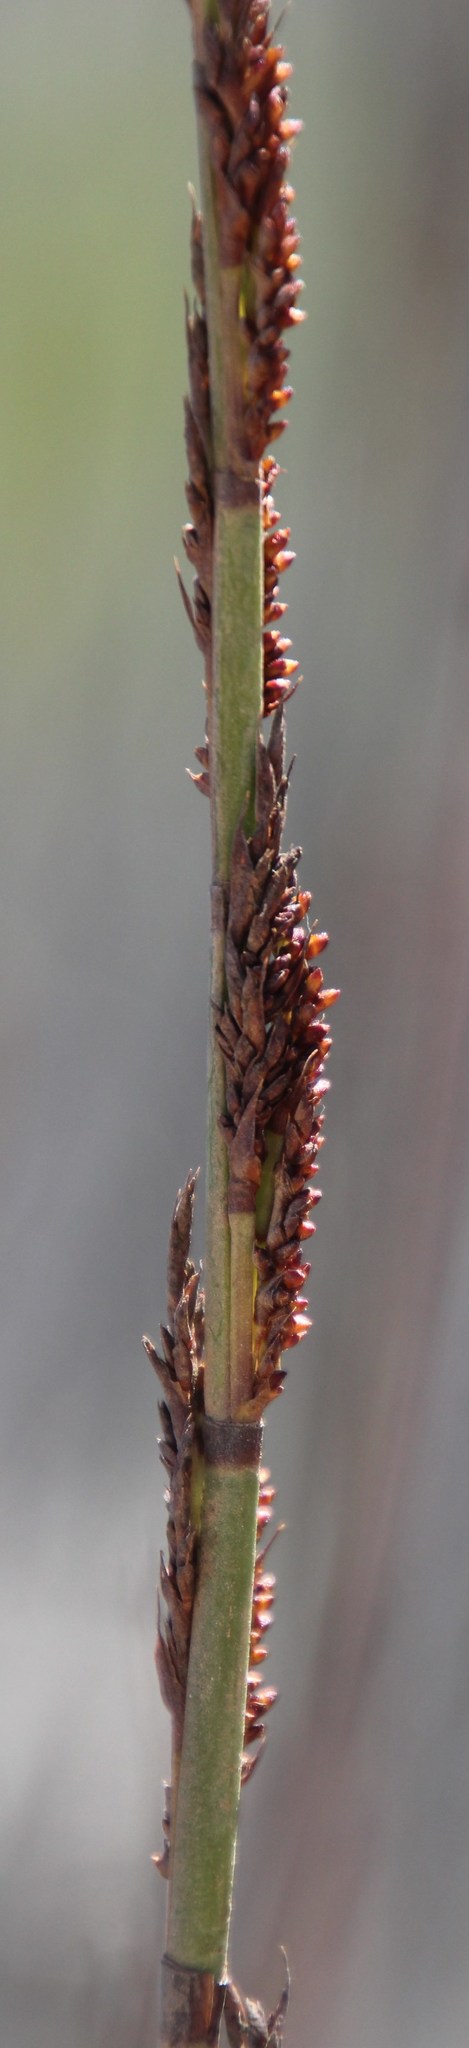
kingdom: Plantae
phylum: Tracheophyta
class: Liliopsida
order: Poales
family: Restionaceae
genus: Thamnochortus
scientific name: Thamnochortus spicigerus
